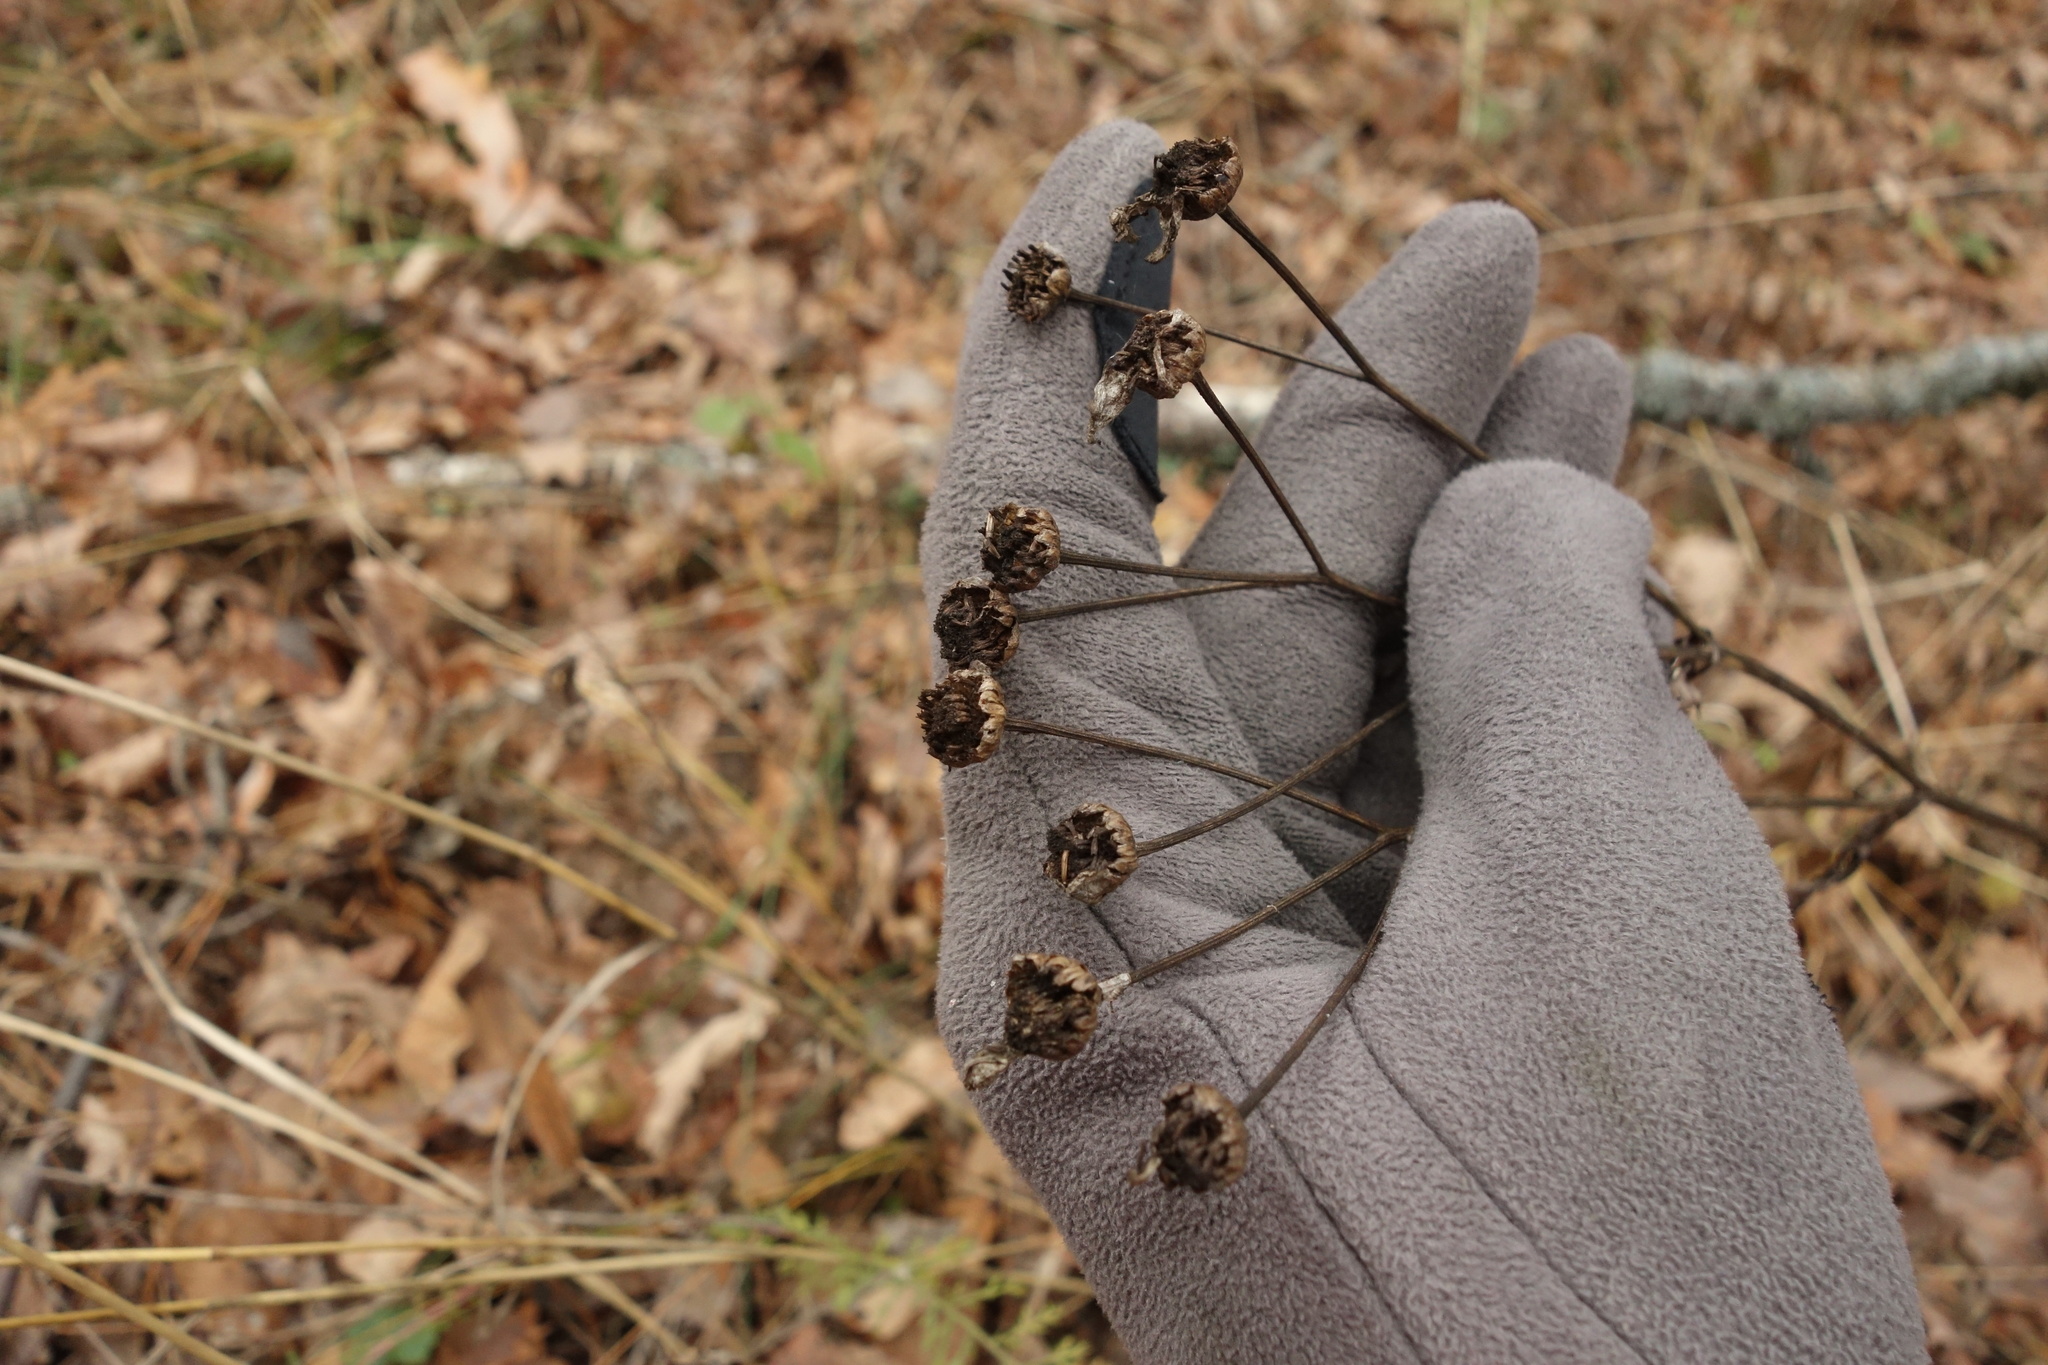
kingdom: Plantae
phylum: Tracheophyta
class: Magnoliopsida
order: Asterales
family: Asteraceae
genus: Tanacetum
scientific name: Tanacetum corymbosum
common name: Scentless feverfew
